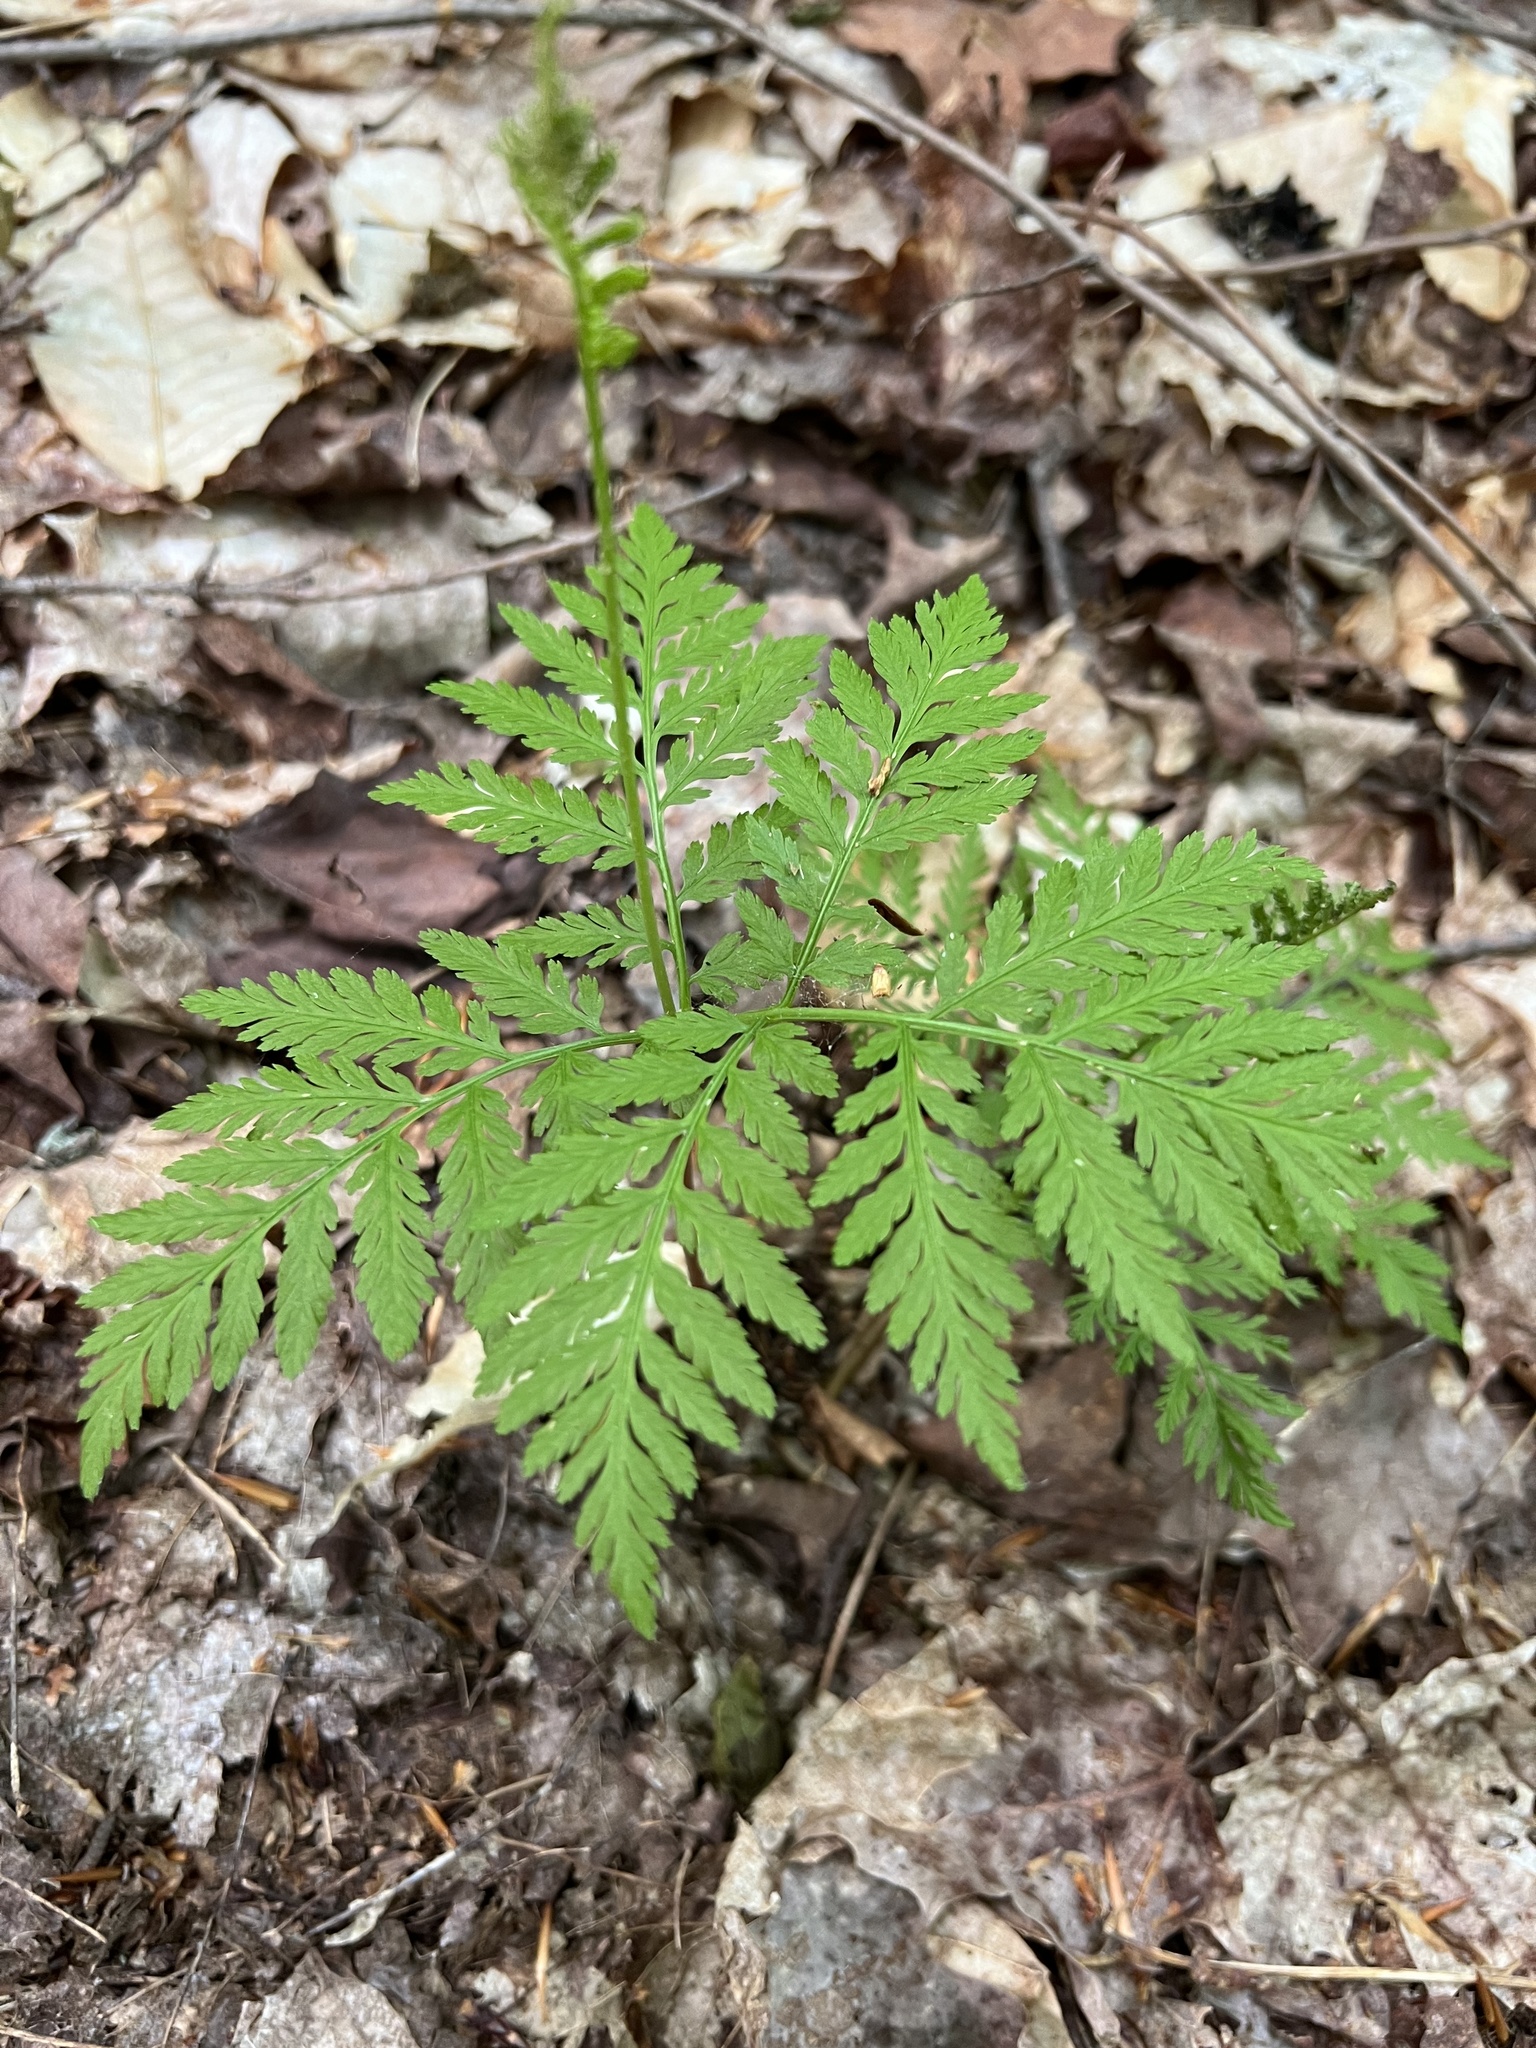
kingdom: Plantae
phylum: Tracheophyta
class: Polypodiopsida
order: Ophioglossales
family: Ophioglossaceae
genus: Botrypus
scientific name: Botrypus virginianus
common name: Common grapefern
